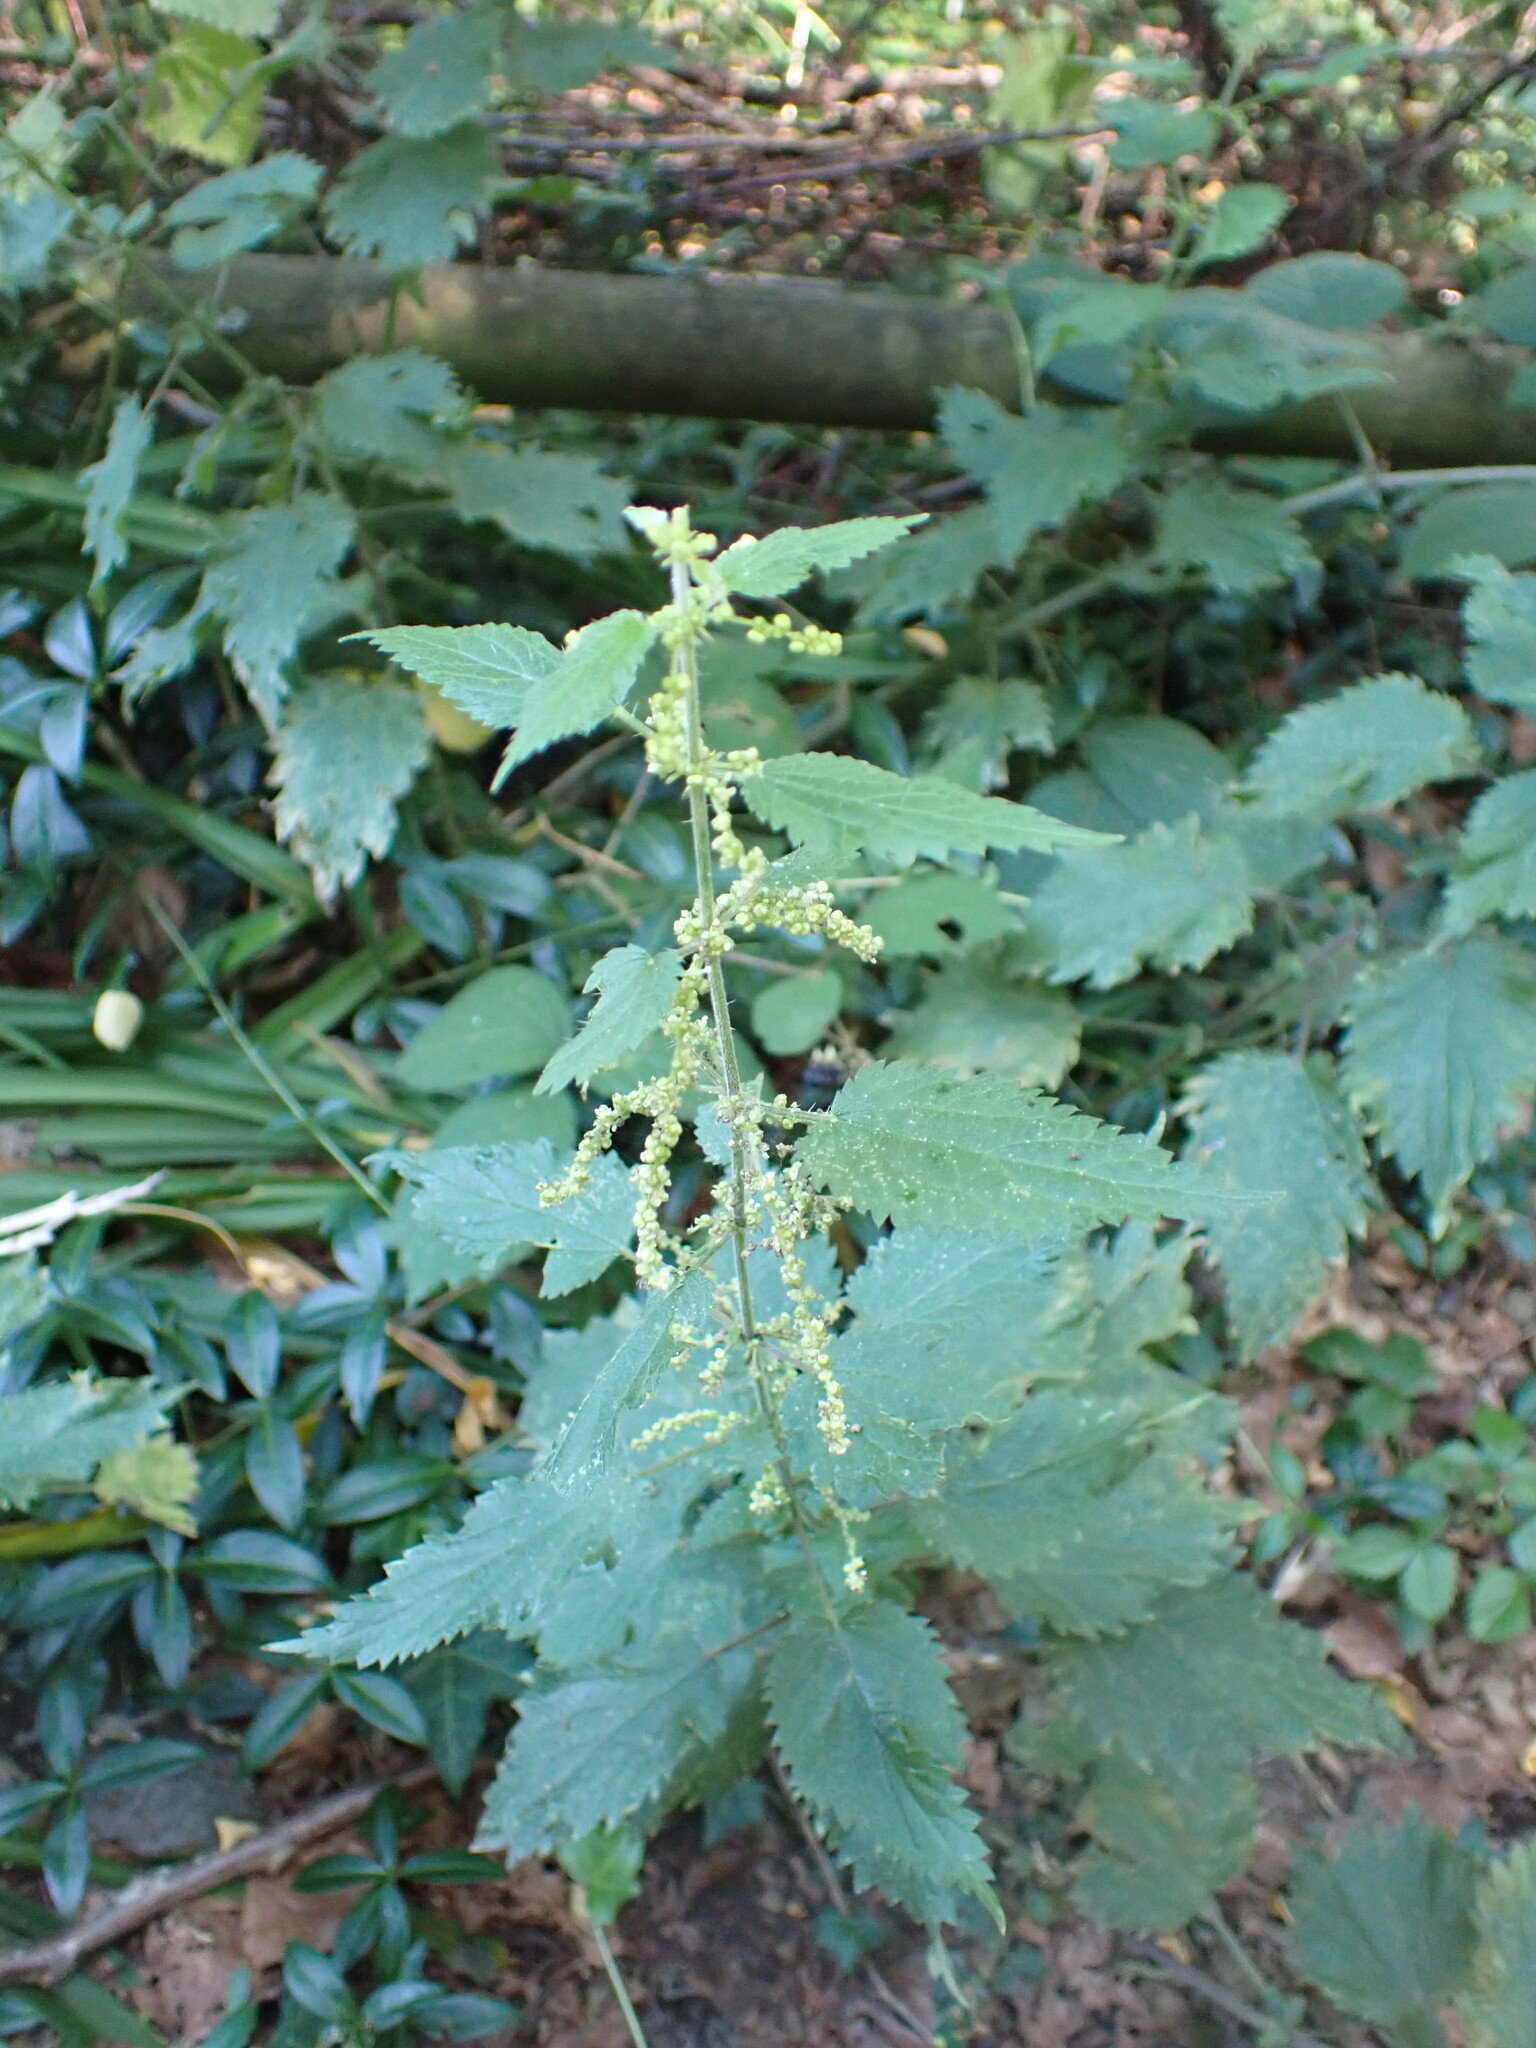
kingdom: Plantae
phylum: Tracheophyta
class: Magnoliopsida
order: Rosales
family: Urticaceae
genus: Urtica
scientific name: Urtica dioica
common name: Common nettle
